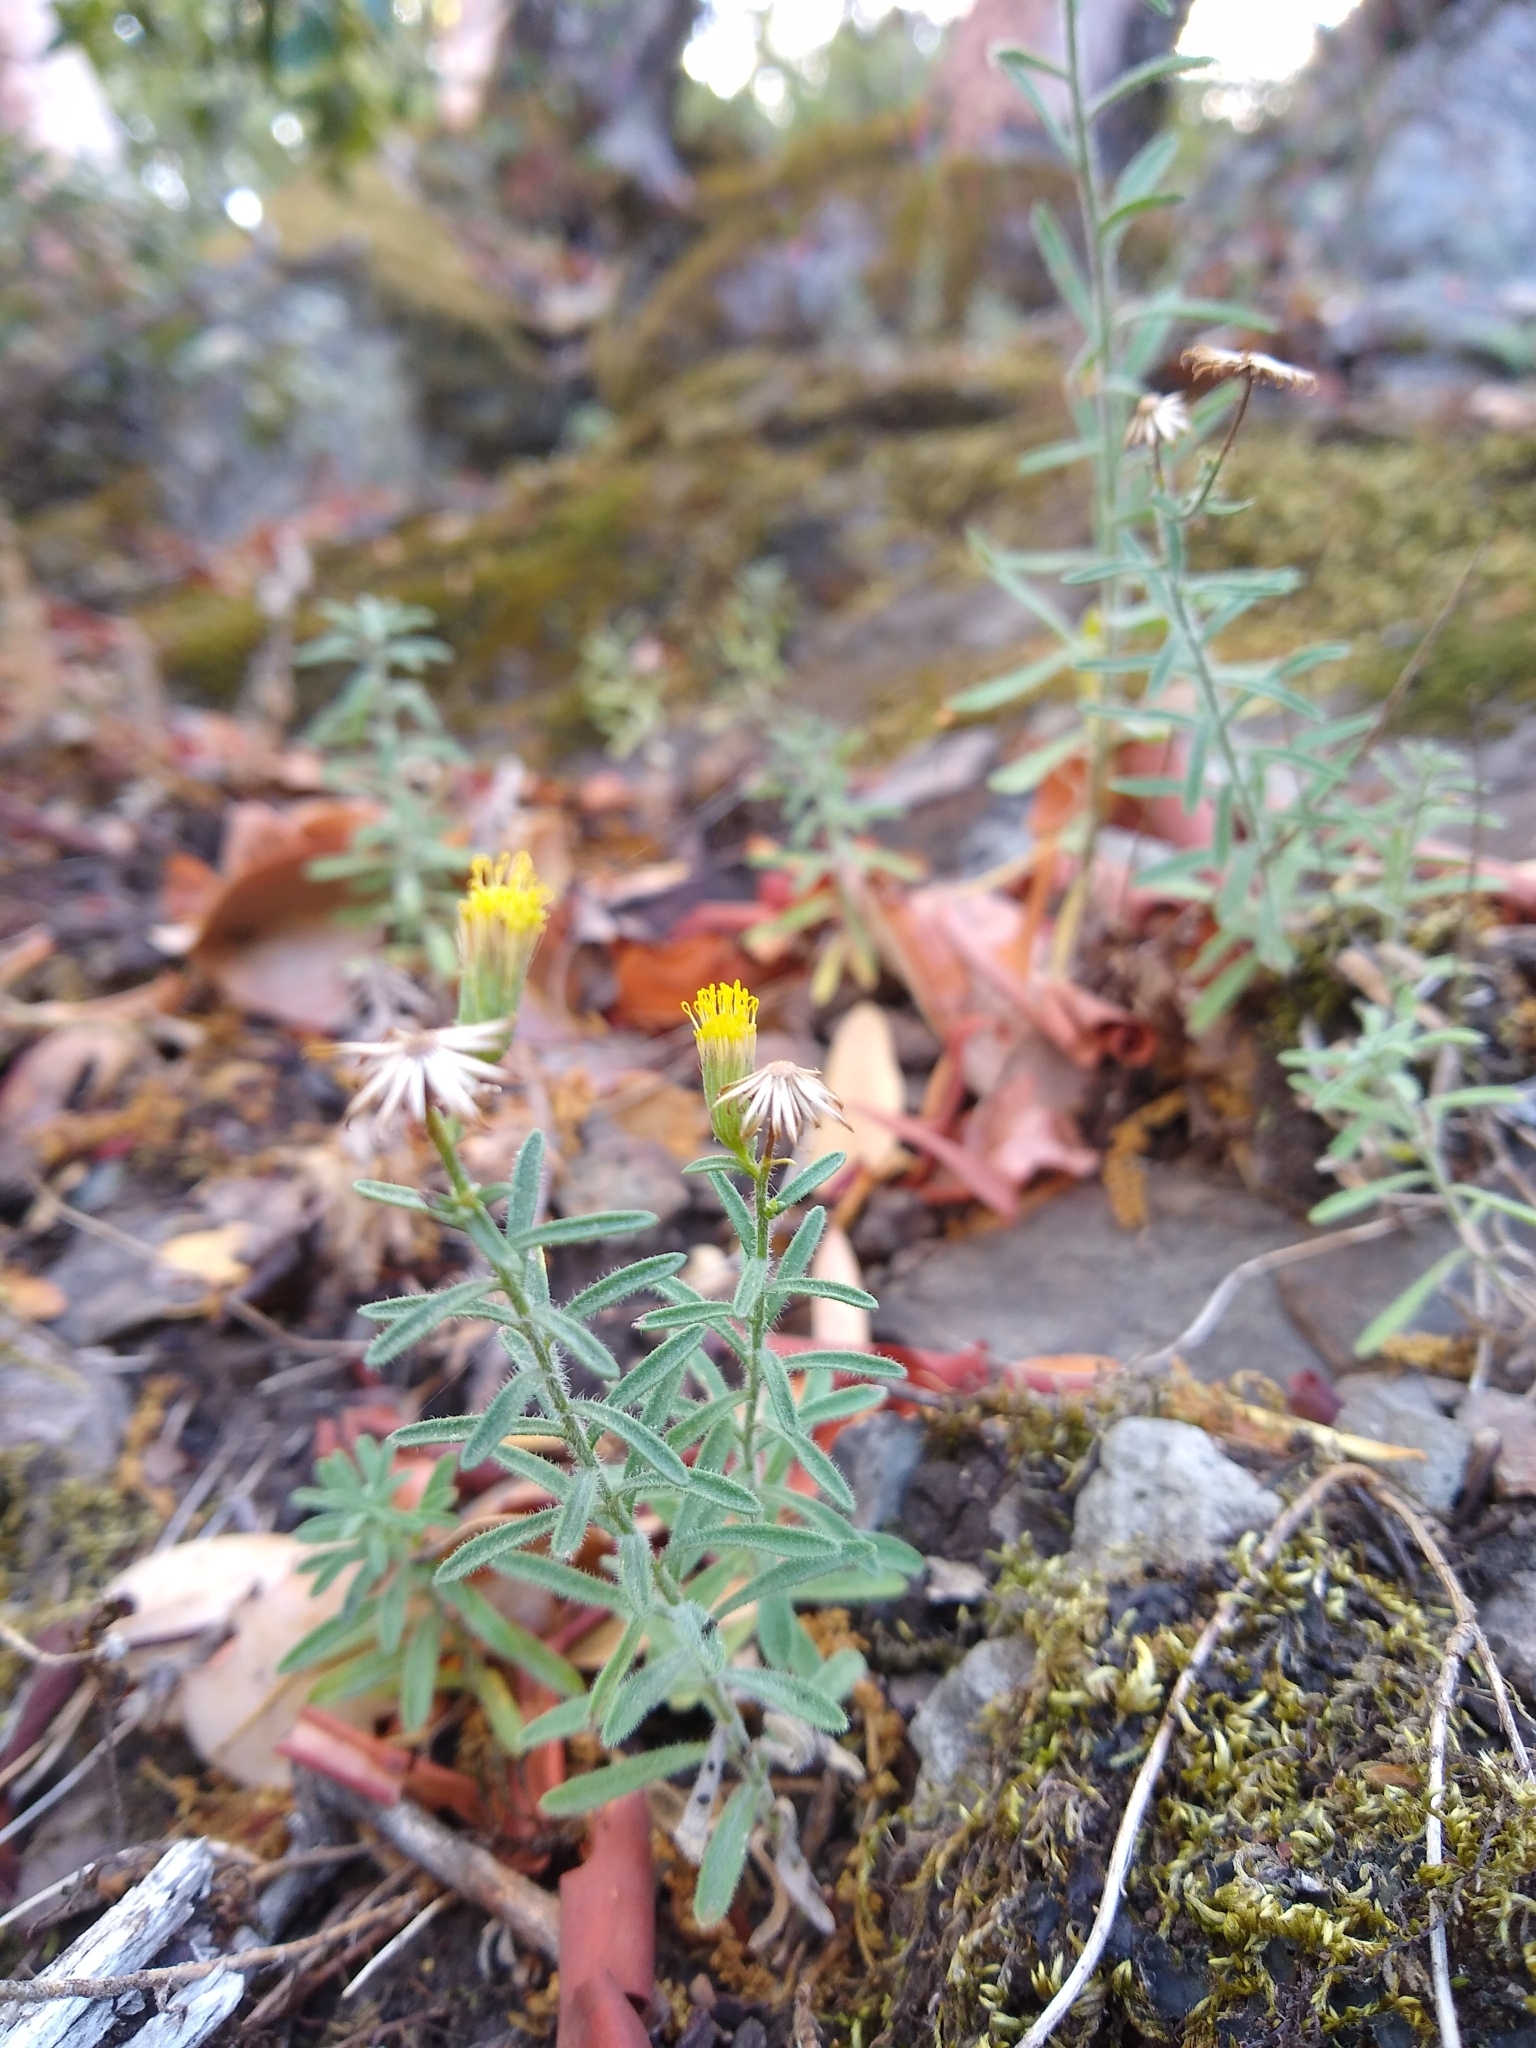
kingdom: Plantae
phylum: Tracheophyta
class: Magnoliopsida
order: Asterales
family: Asteraceae
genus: Erigeron
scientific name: Erigeron petrophilus
